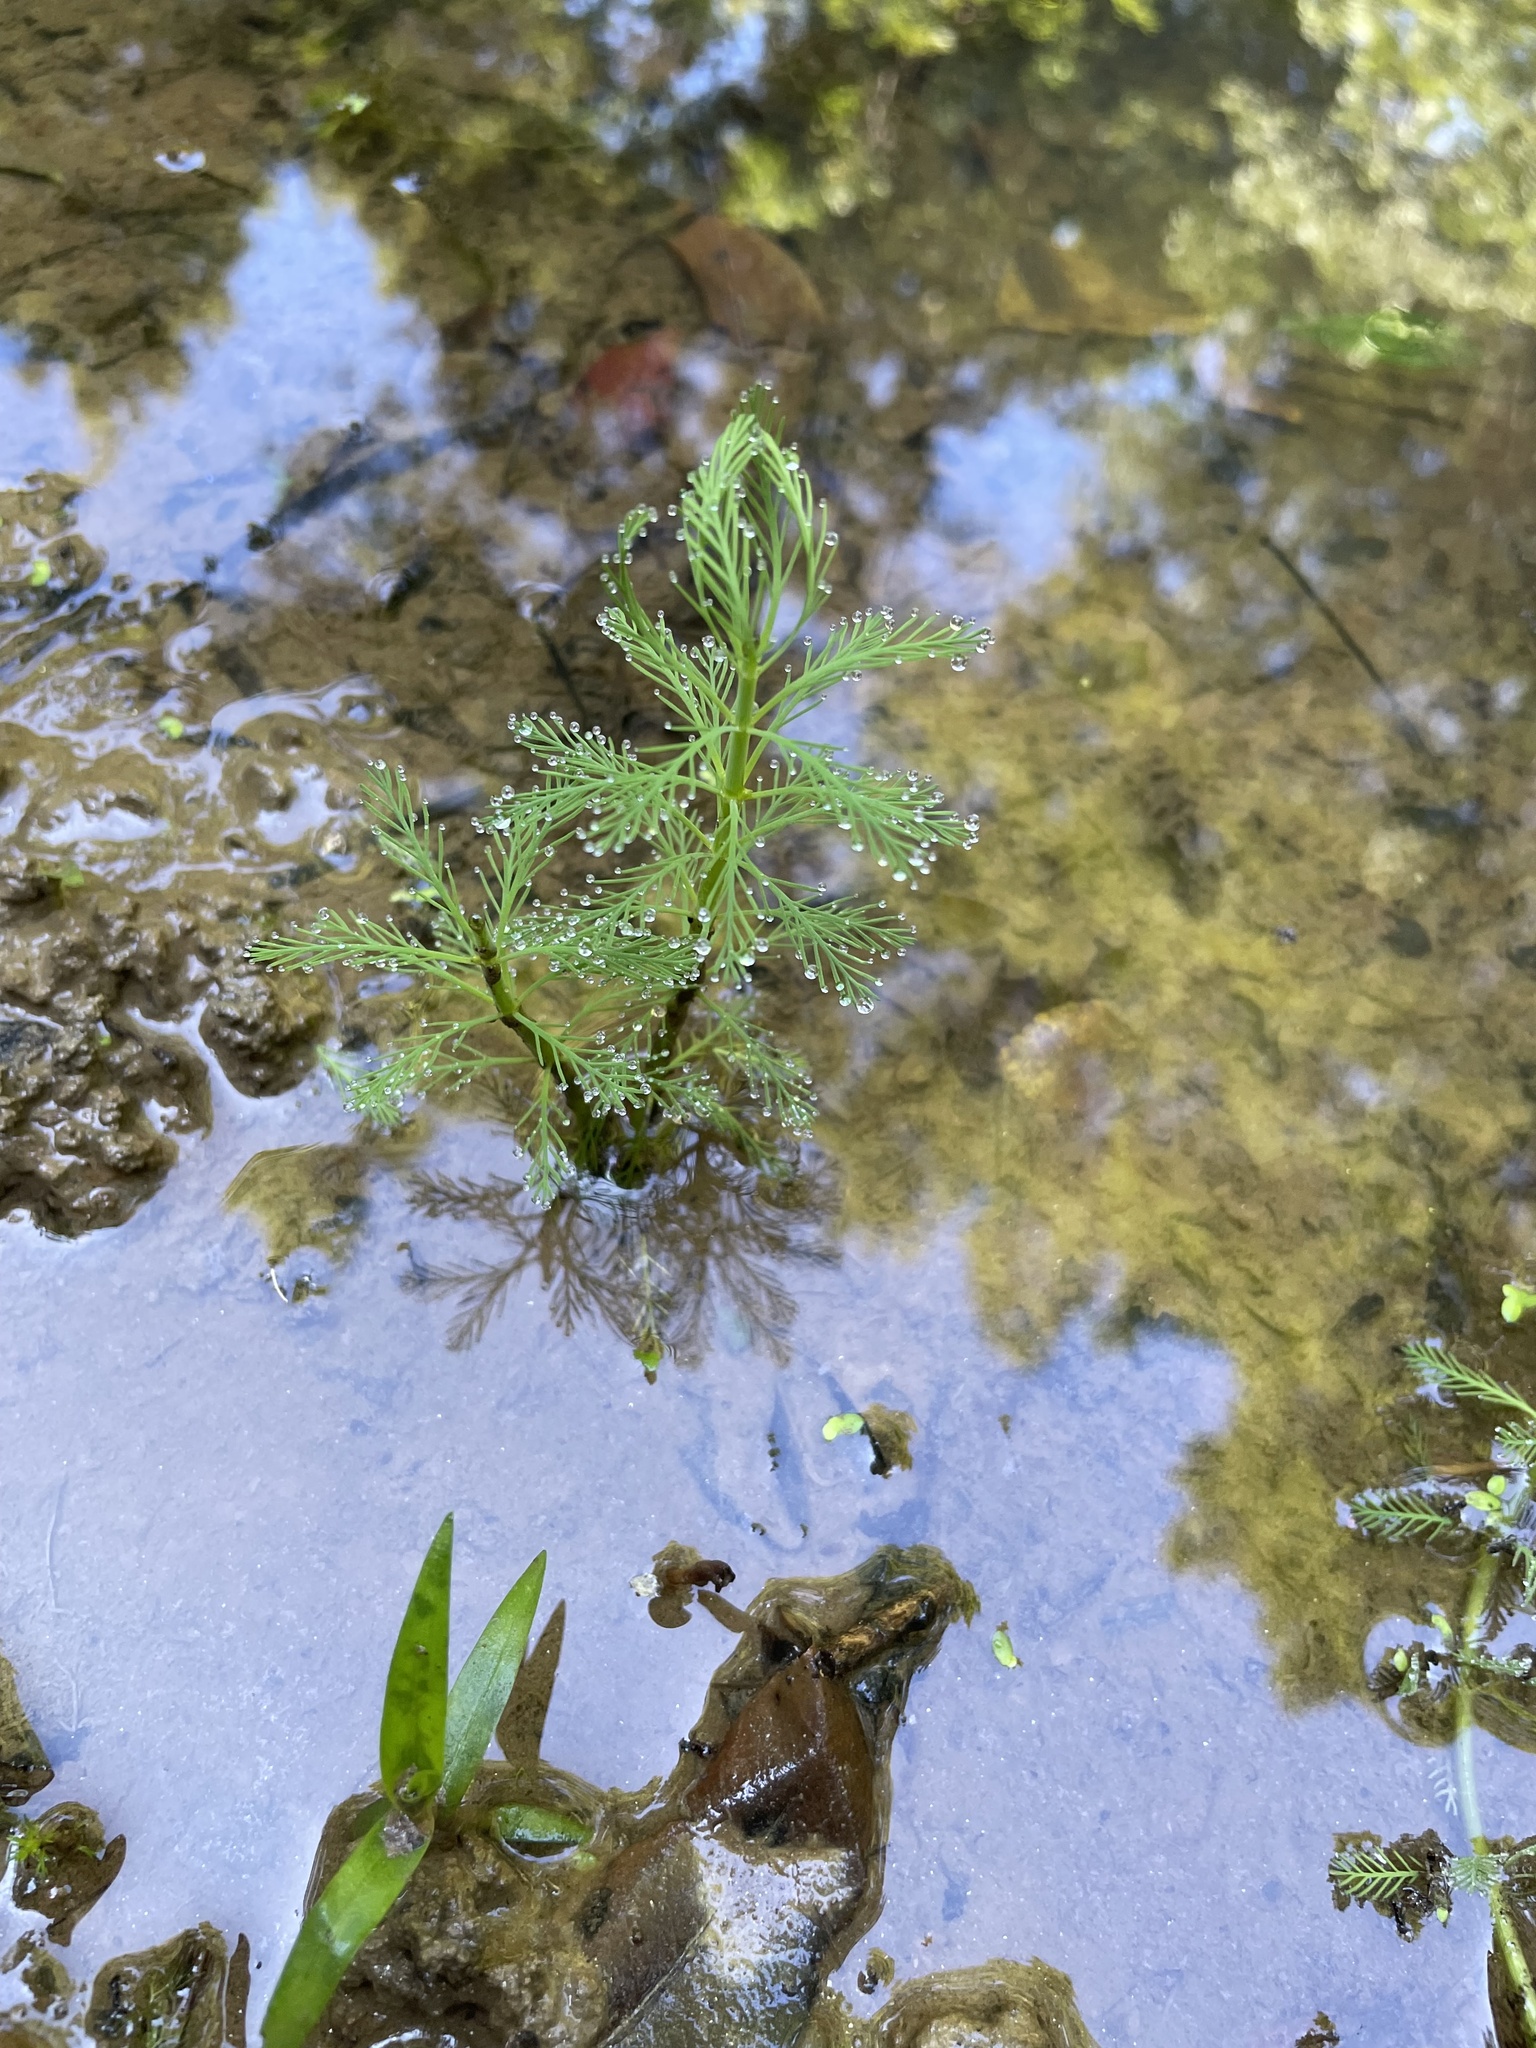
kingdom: Plantae
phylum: Tracheophyta
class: Magnoliopsida
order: Saxifragales
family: Haloragaceae
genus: Myriophyllum
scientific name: Myriophyllum aquaticum
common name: Parrot's feather
